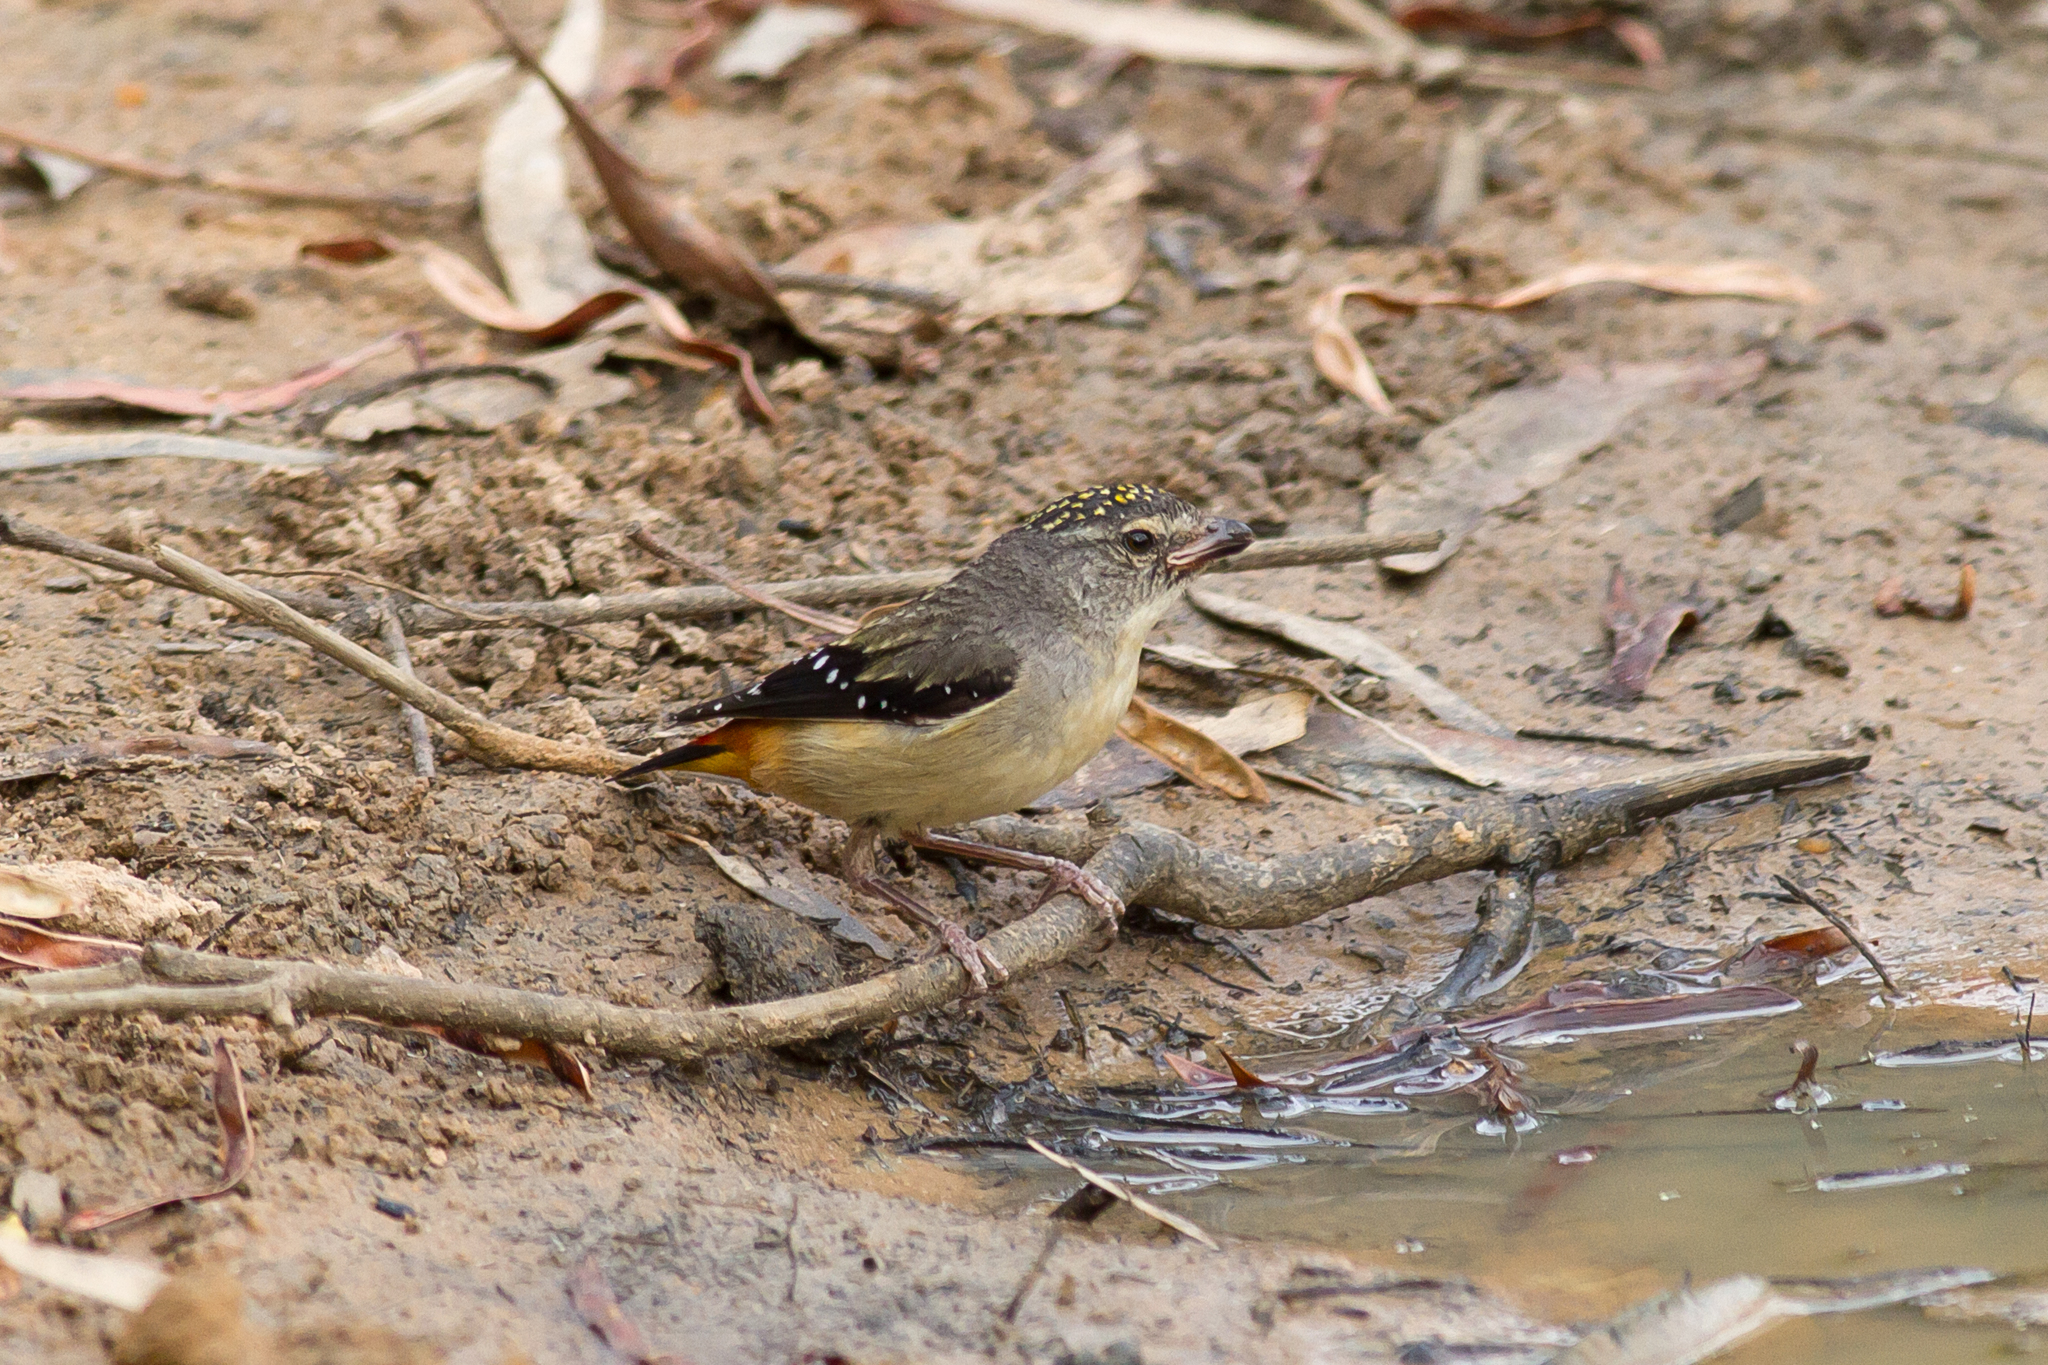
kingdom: Animalia
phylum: Chordata
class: Aves
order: Passeriformes
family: Pardalotidae
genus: Pardalotus
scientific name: Pardalotus punctatus
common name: Spotted pardalote
